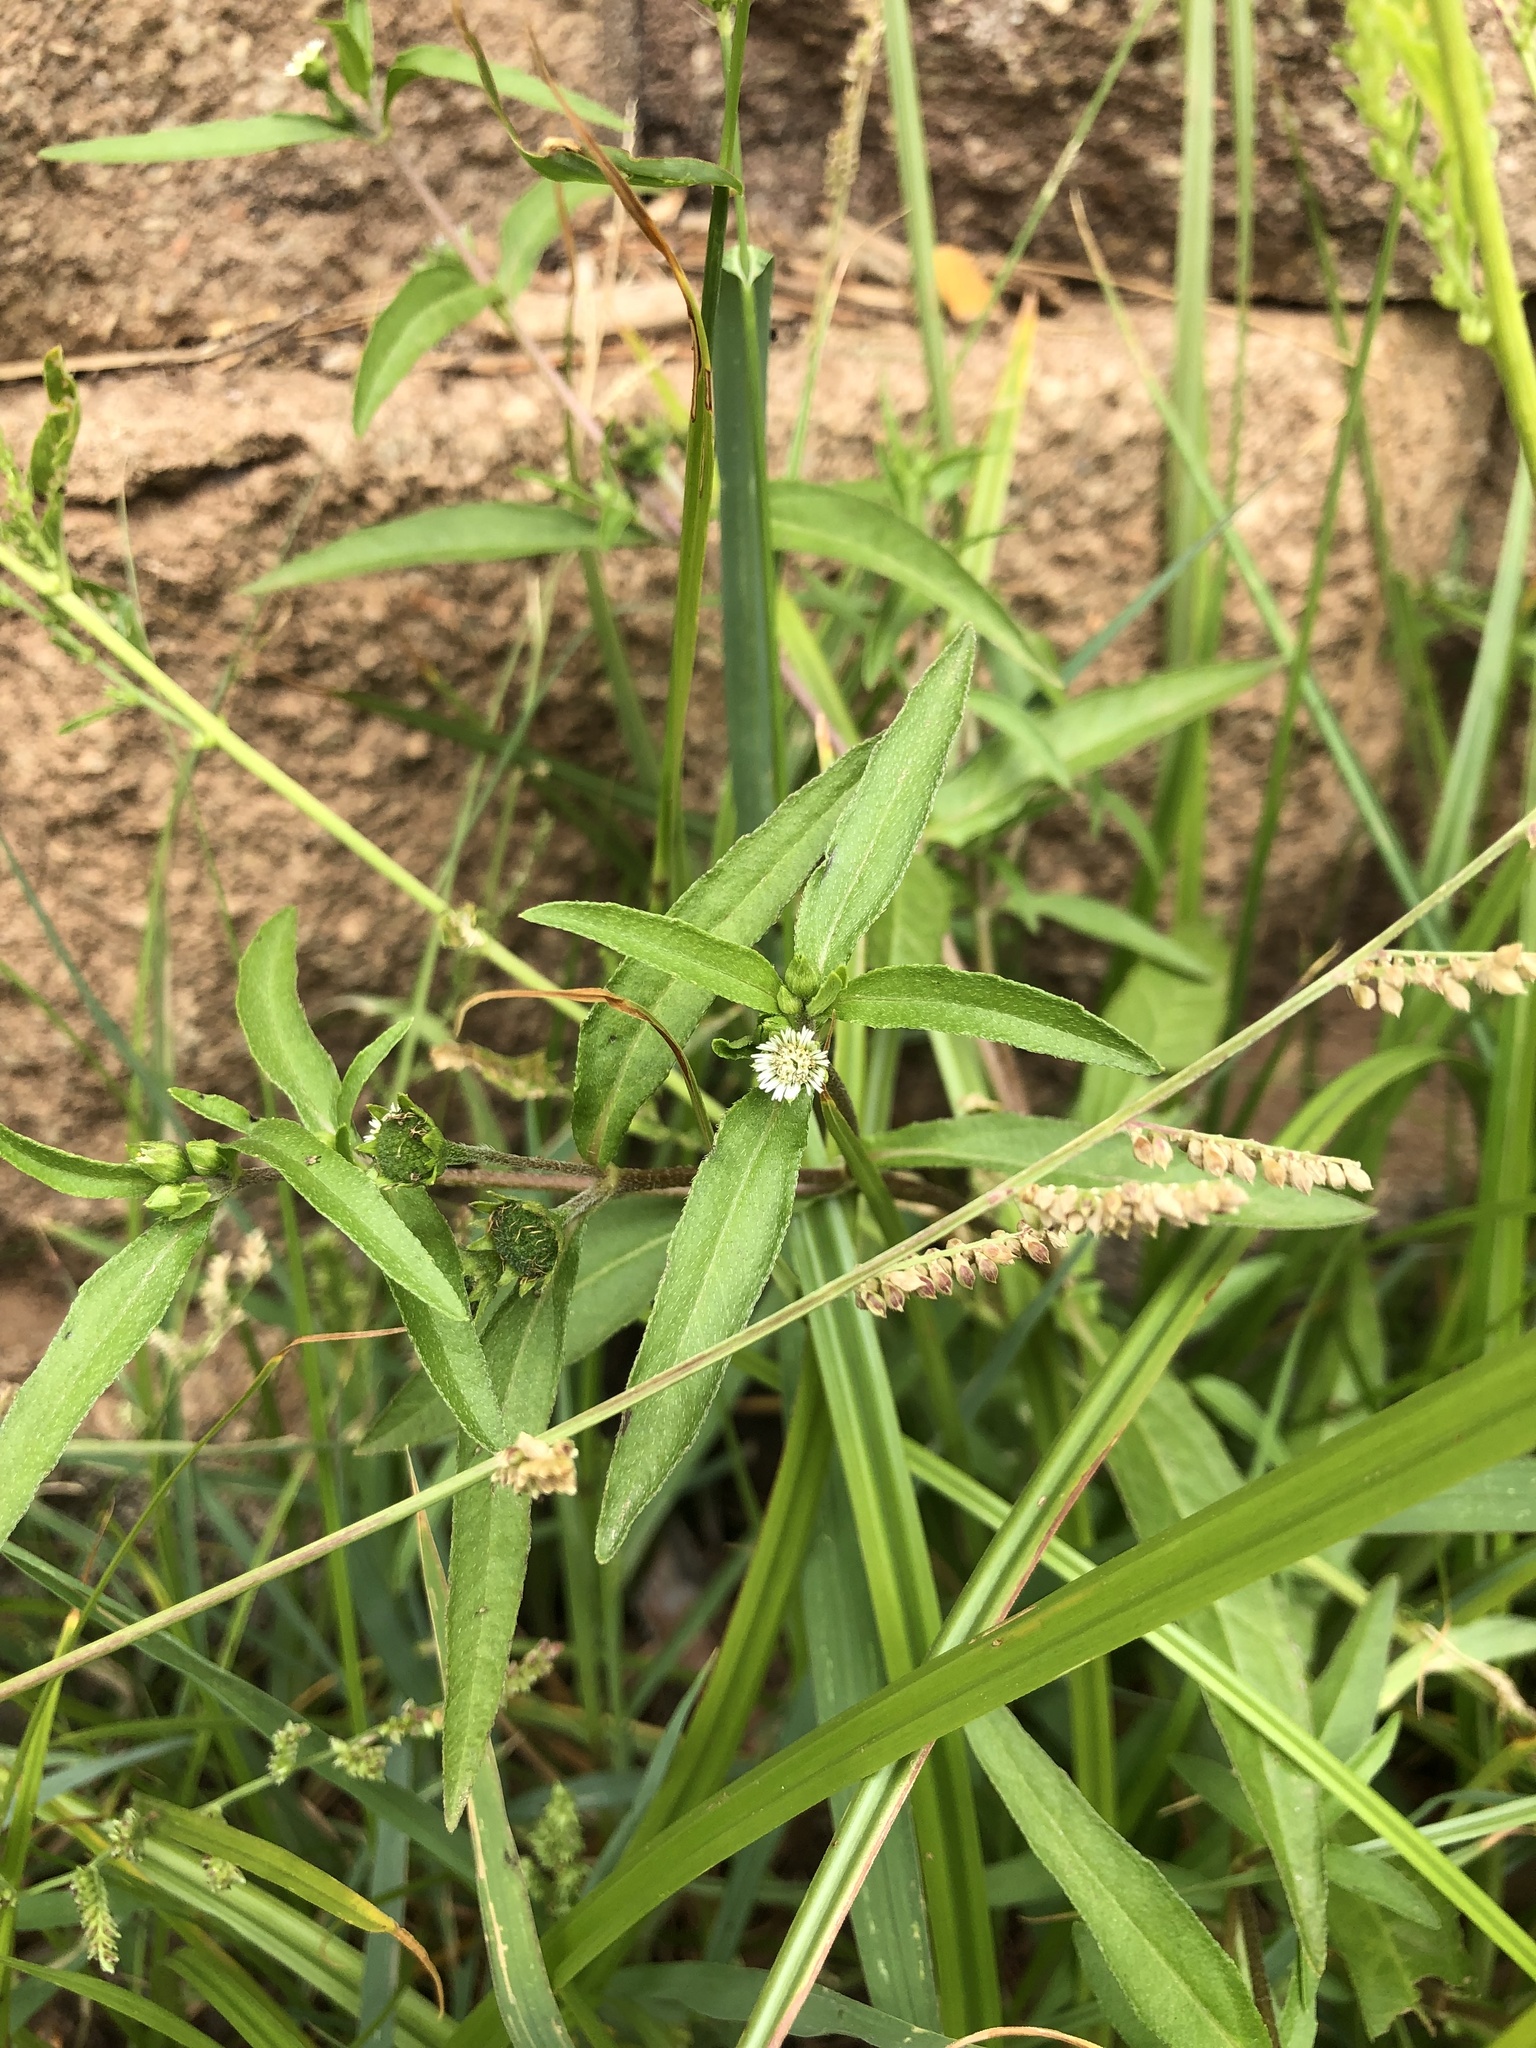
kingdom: Plantae
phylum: Tracheophyta
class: Magnoliopsida
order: Asterales
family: Asteraceae
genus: Eclipta
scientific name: Eclipta prostrata
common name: False daisy
